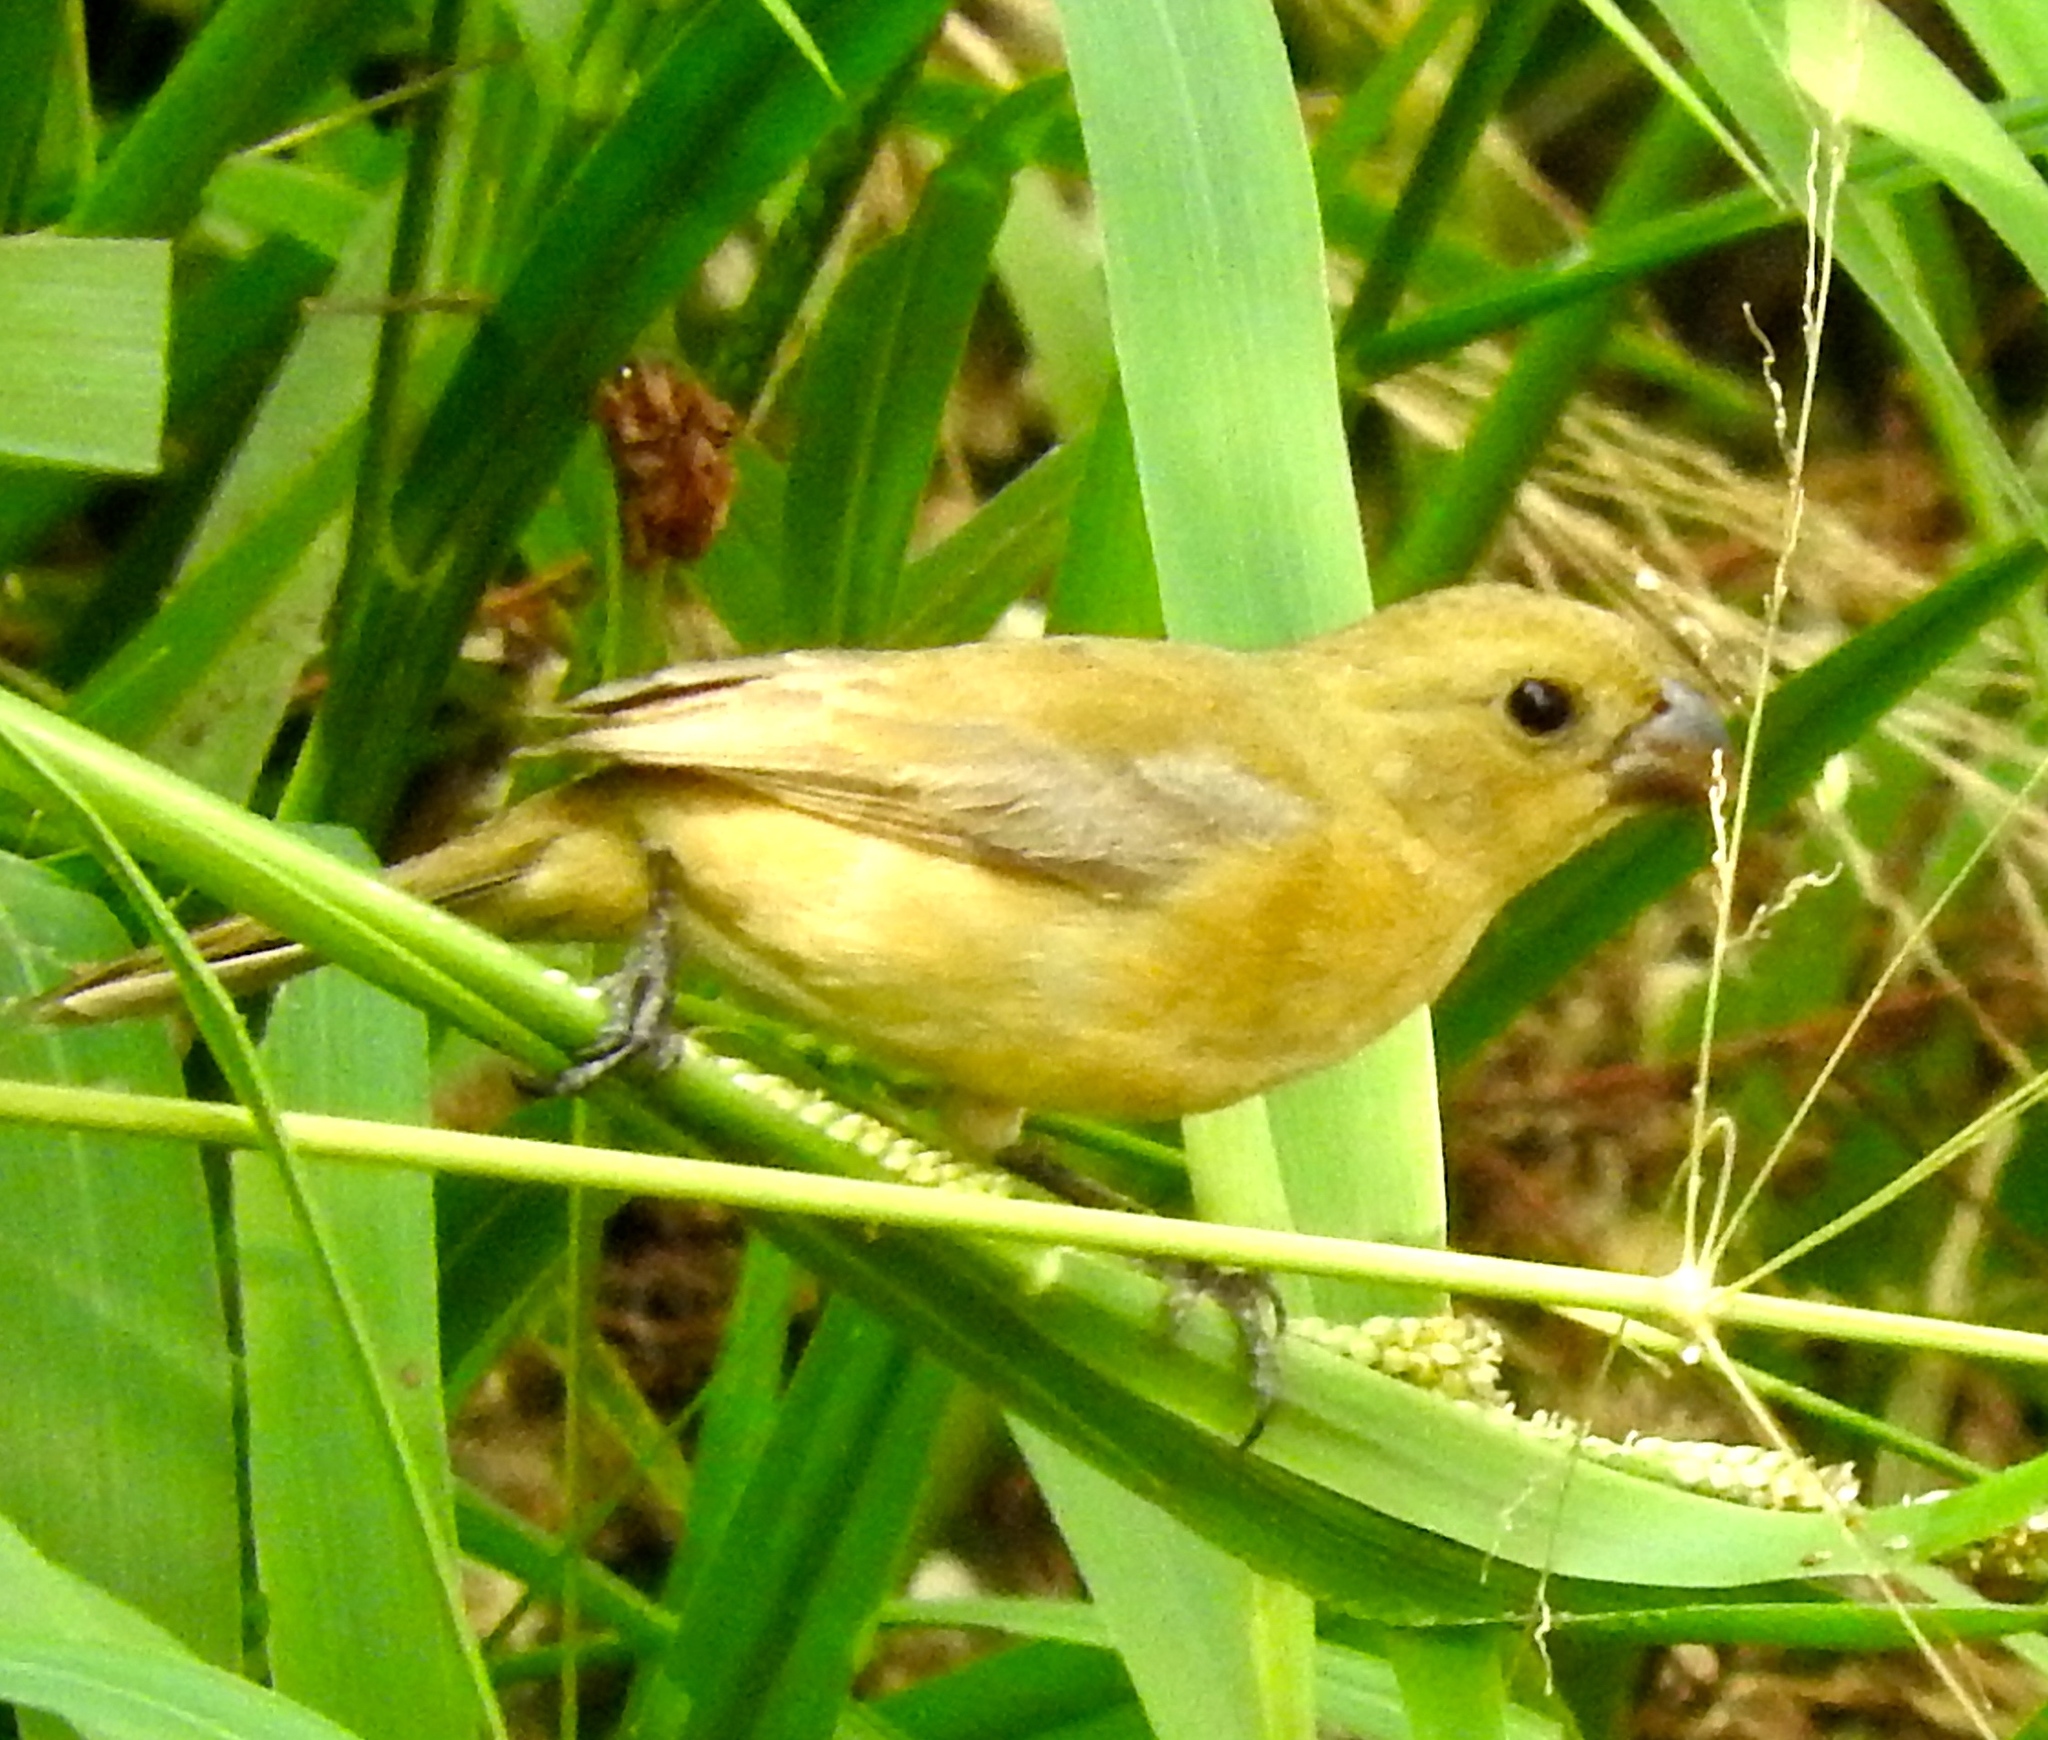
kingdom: Animalia
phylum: Chordata
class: Aves
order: Passeriformes
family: Thraupidae
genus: Sporophila
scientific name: Sporophila torqueola
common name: White-collared seedeater
